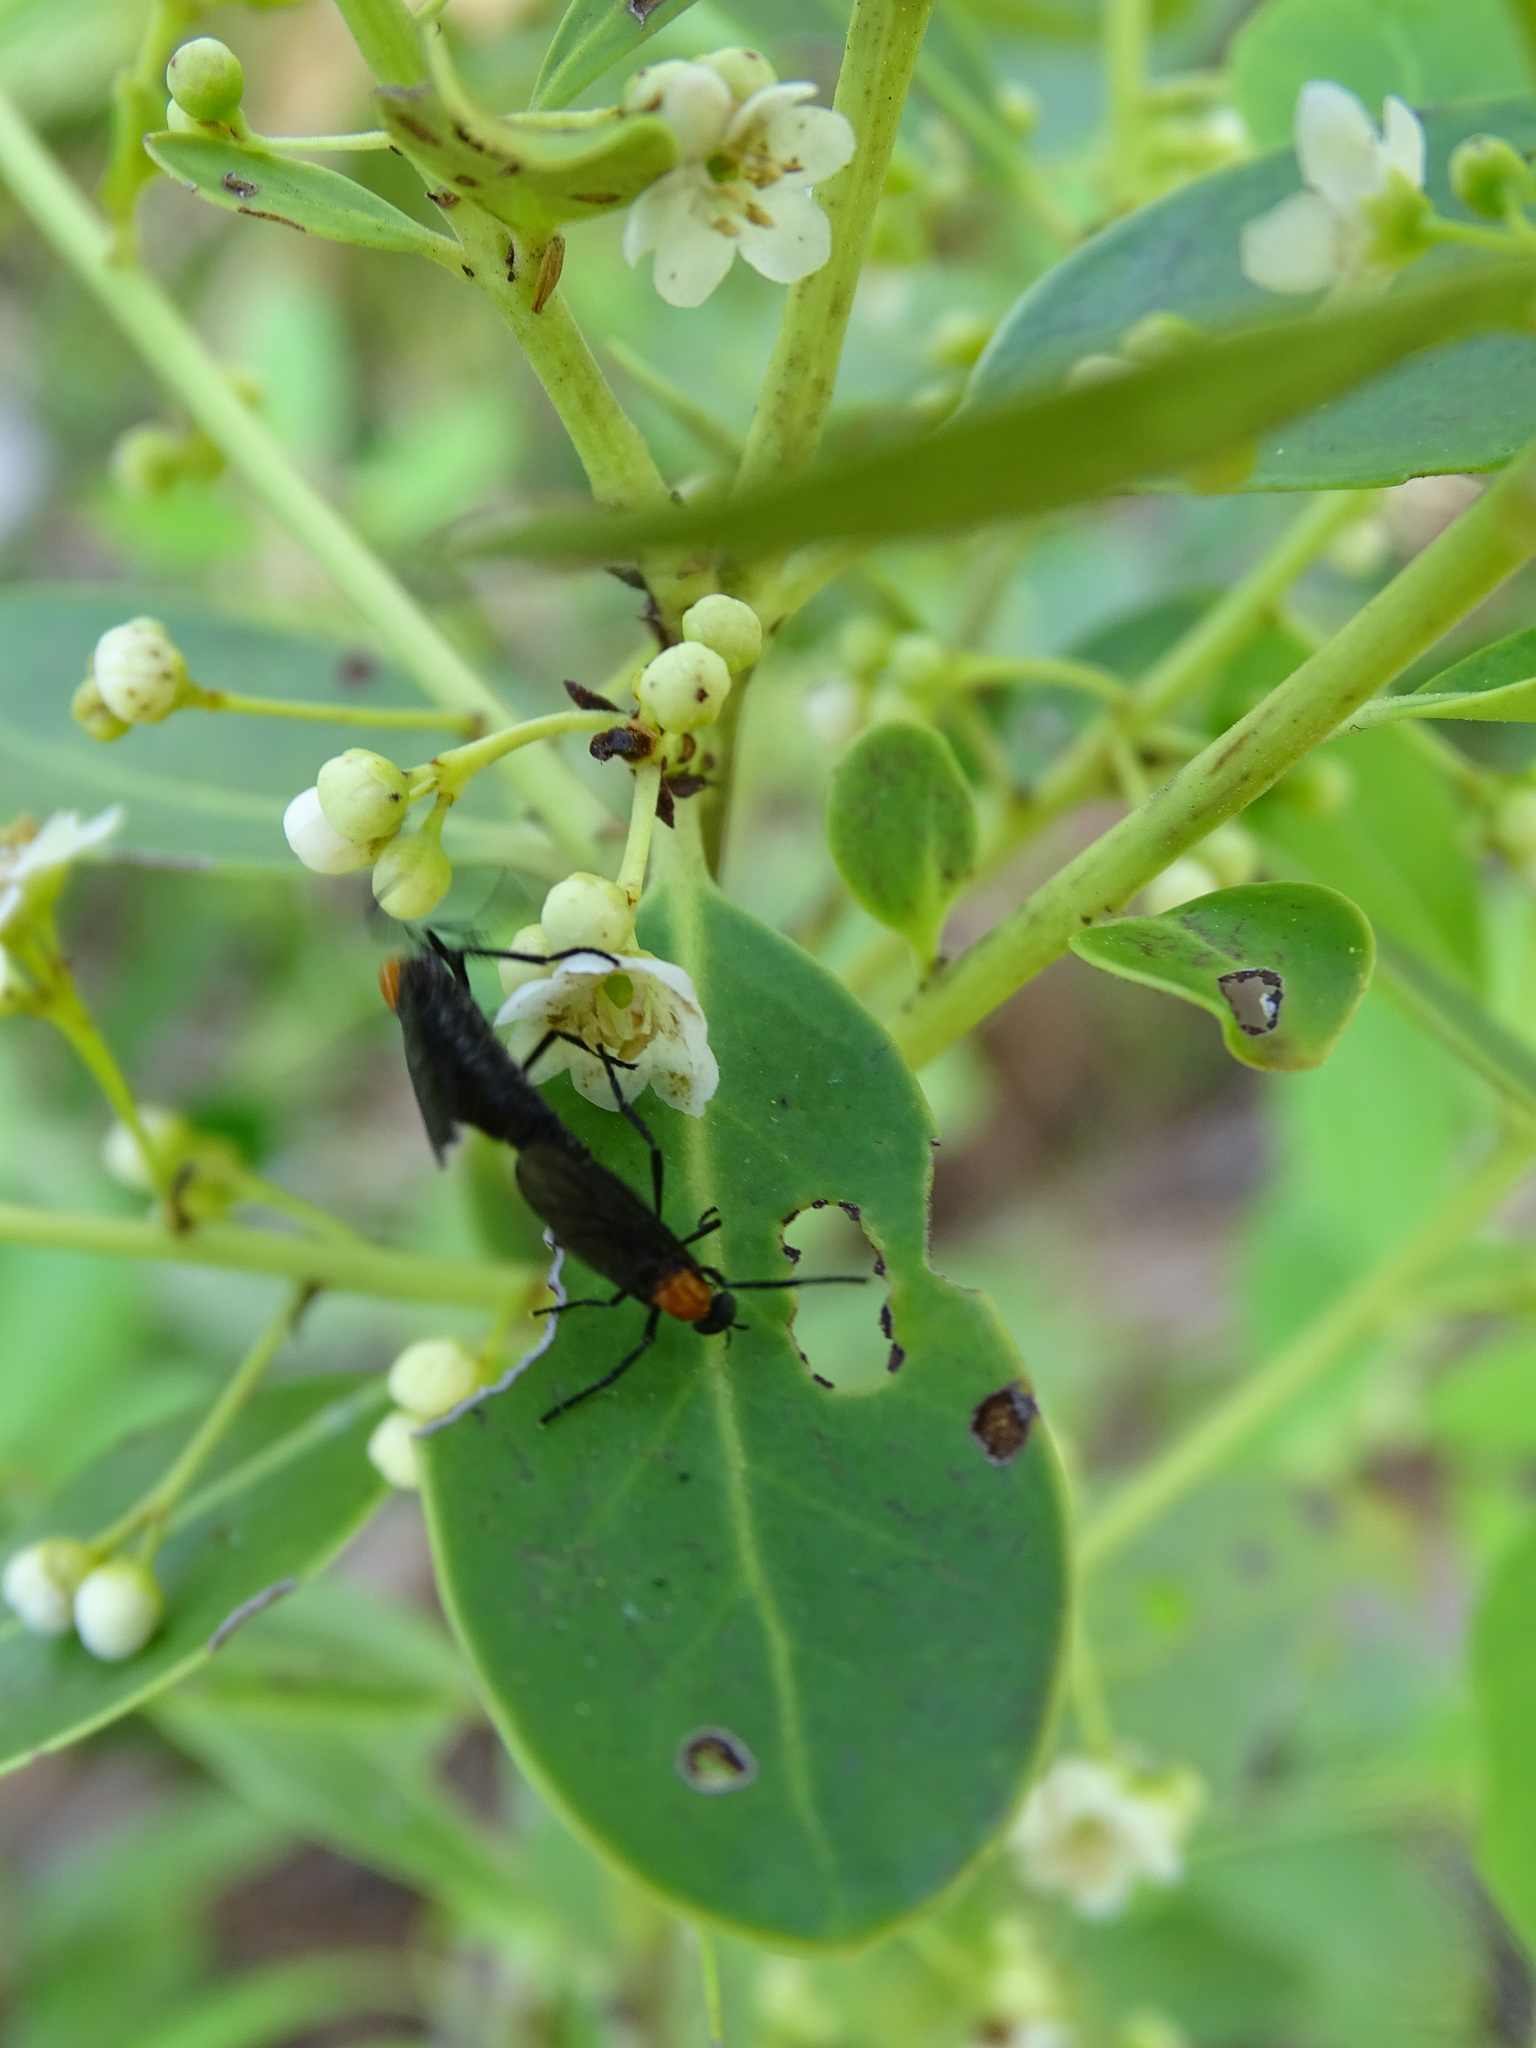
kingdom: Animalia
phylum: Arthropoda
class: Insecta
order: Diptera
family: Bibionidae
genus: Plecia
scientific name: Plecia nearctica
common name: March fly
